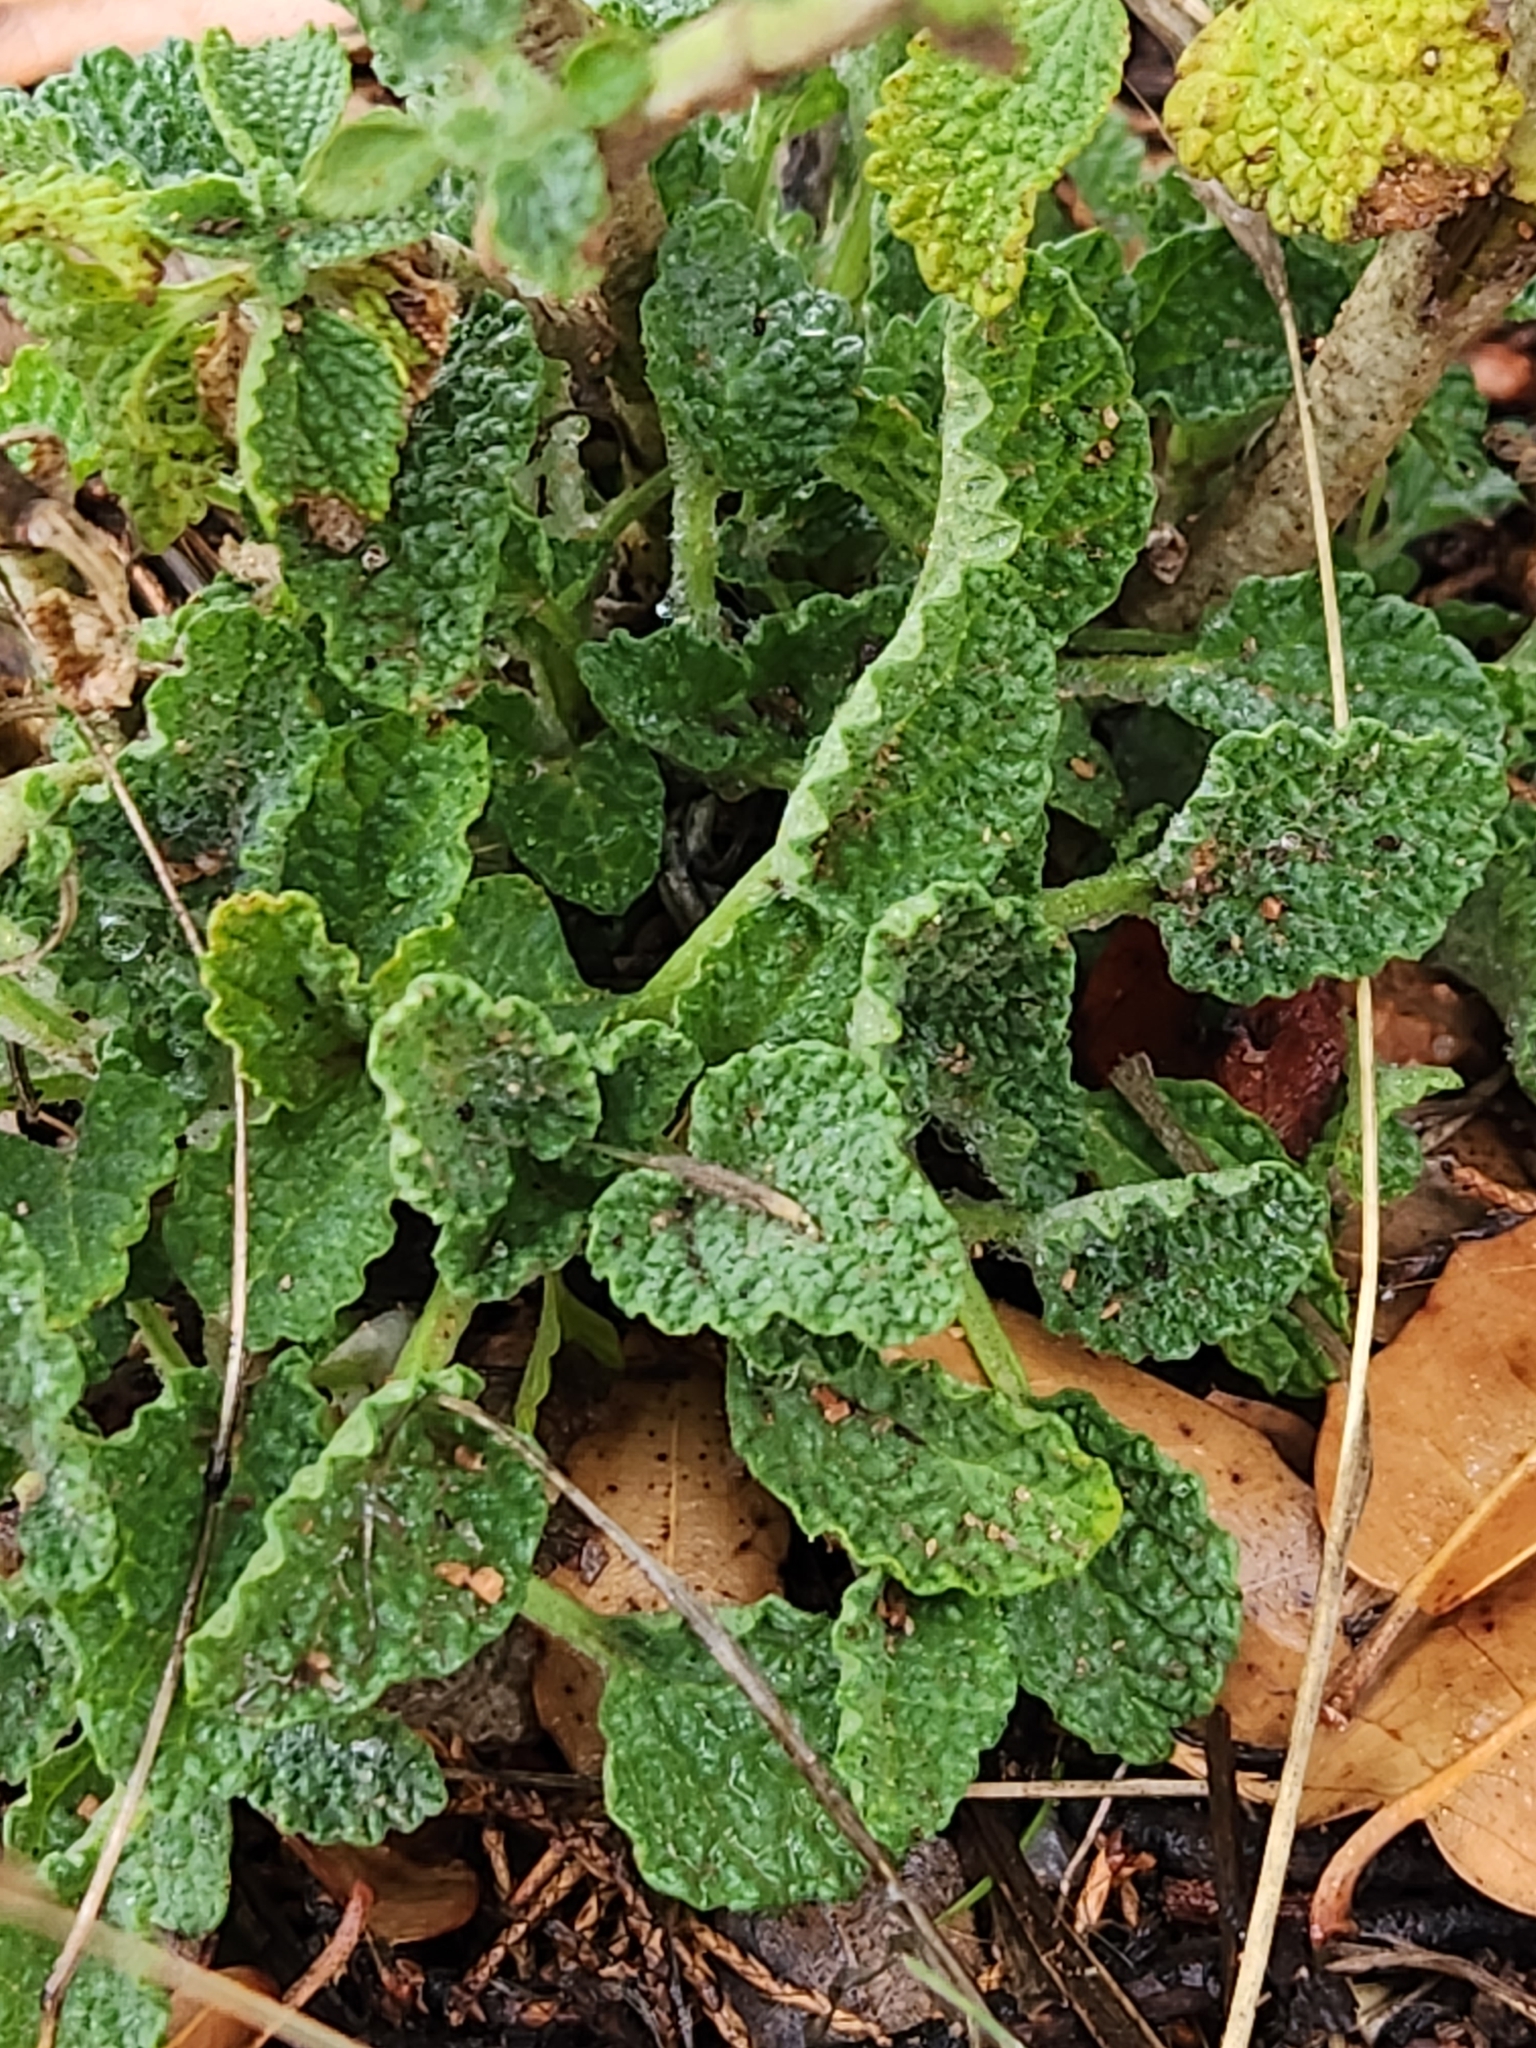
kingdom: Plantae
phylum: Tracheophyta
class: Magnoliopsida
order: Lamiales
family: Lamiaceae
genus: Marrubium
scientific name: Marrubium vulgare
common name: Horehound
